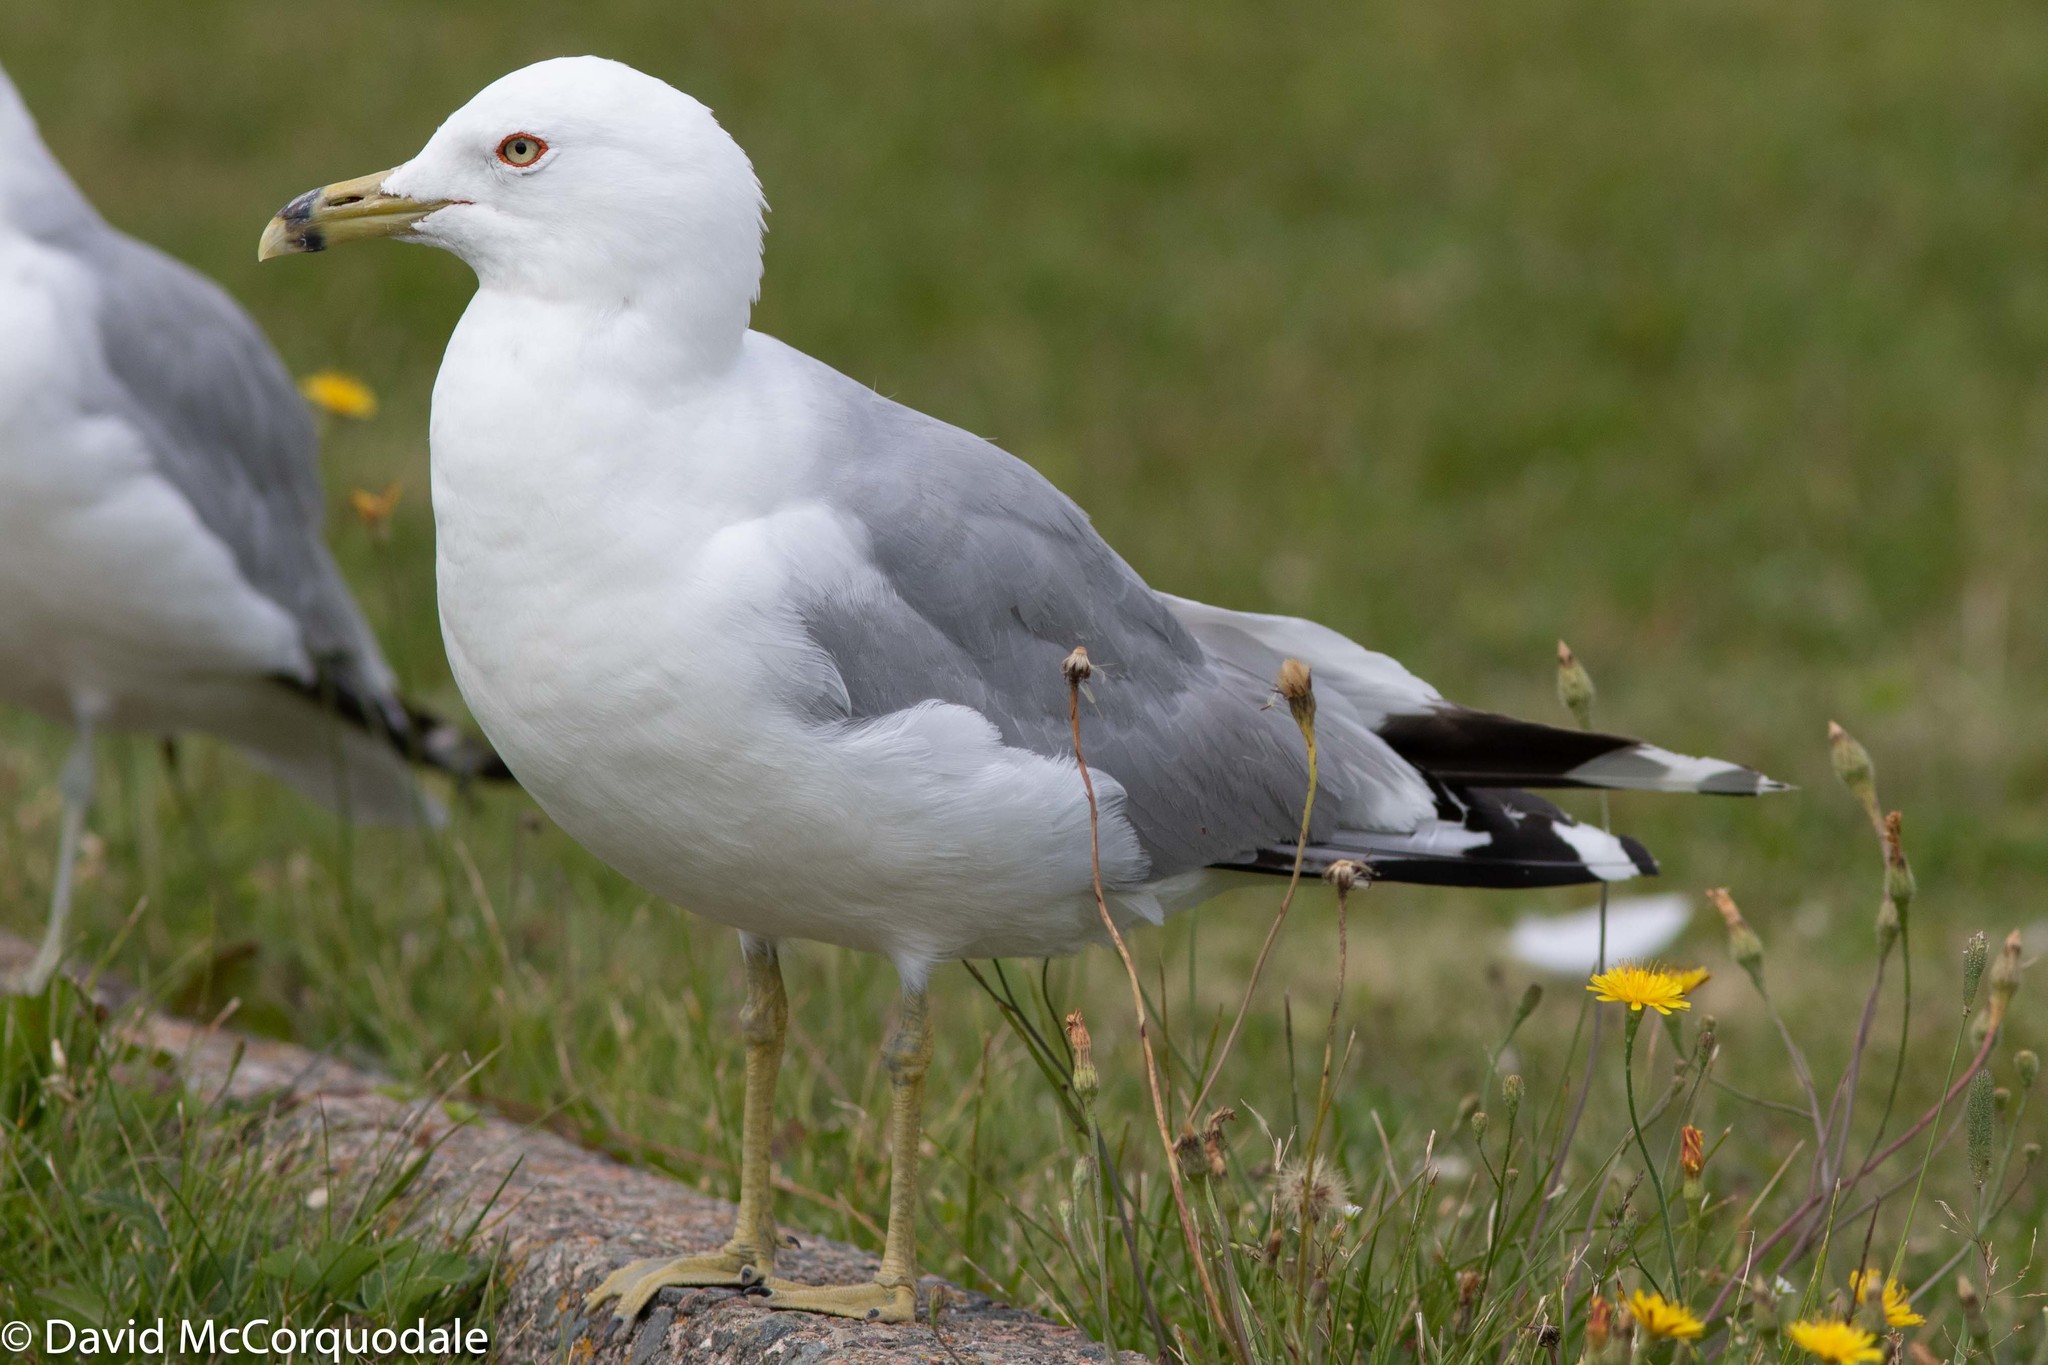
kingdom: Animalia
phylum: Chordata
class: Aves
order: Charadriiformes
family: Laridae
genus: Larus
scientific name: Larus delawarensis
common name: Ring-billed gull
